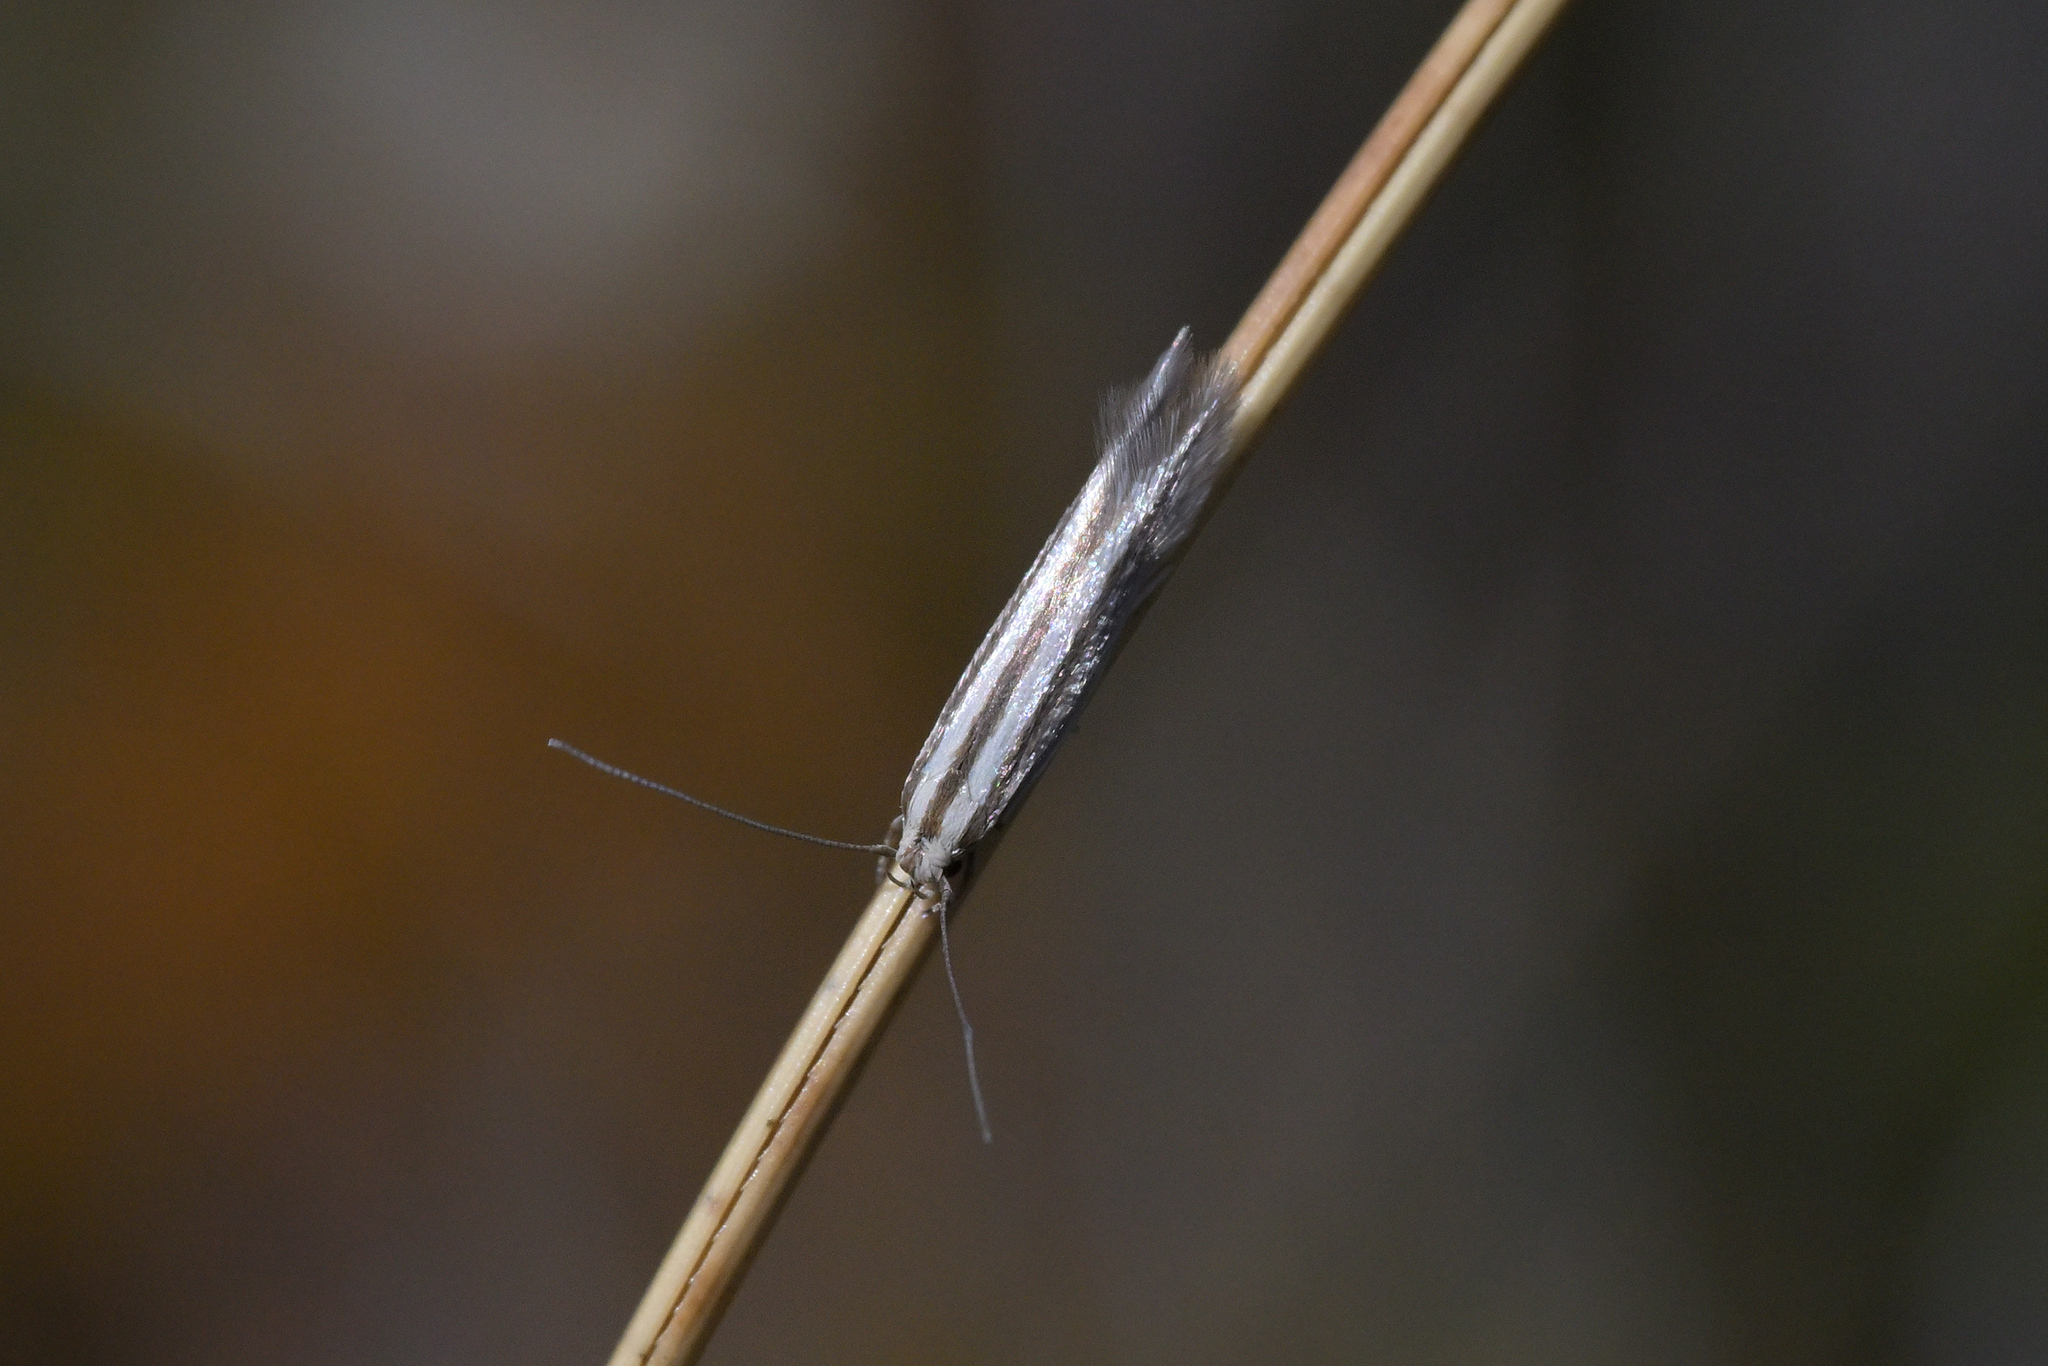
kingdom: Animalia
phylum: Arthropoda
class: Insecta
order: Lepidoptera
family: Elachistidae
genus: Elachista
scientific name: Elachista thallophora
